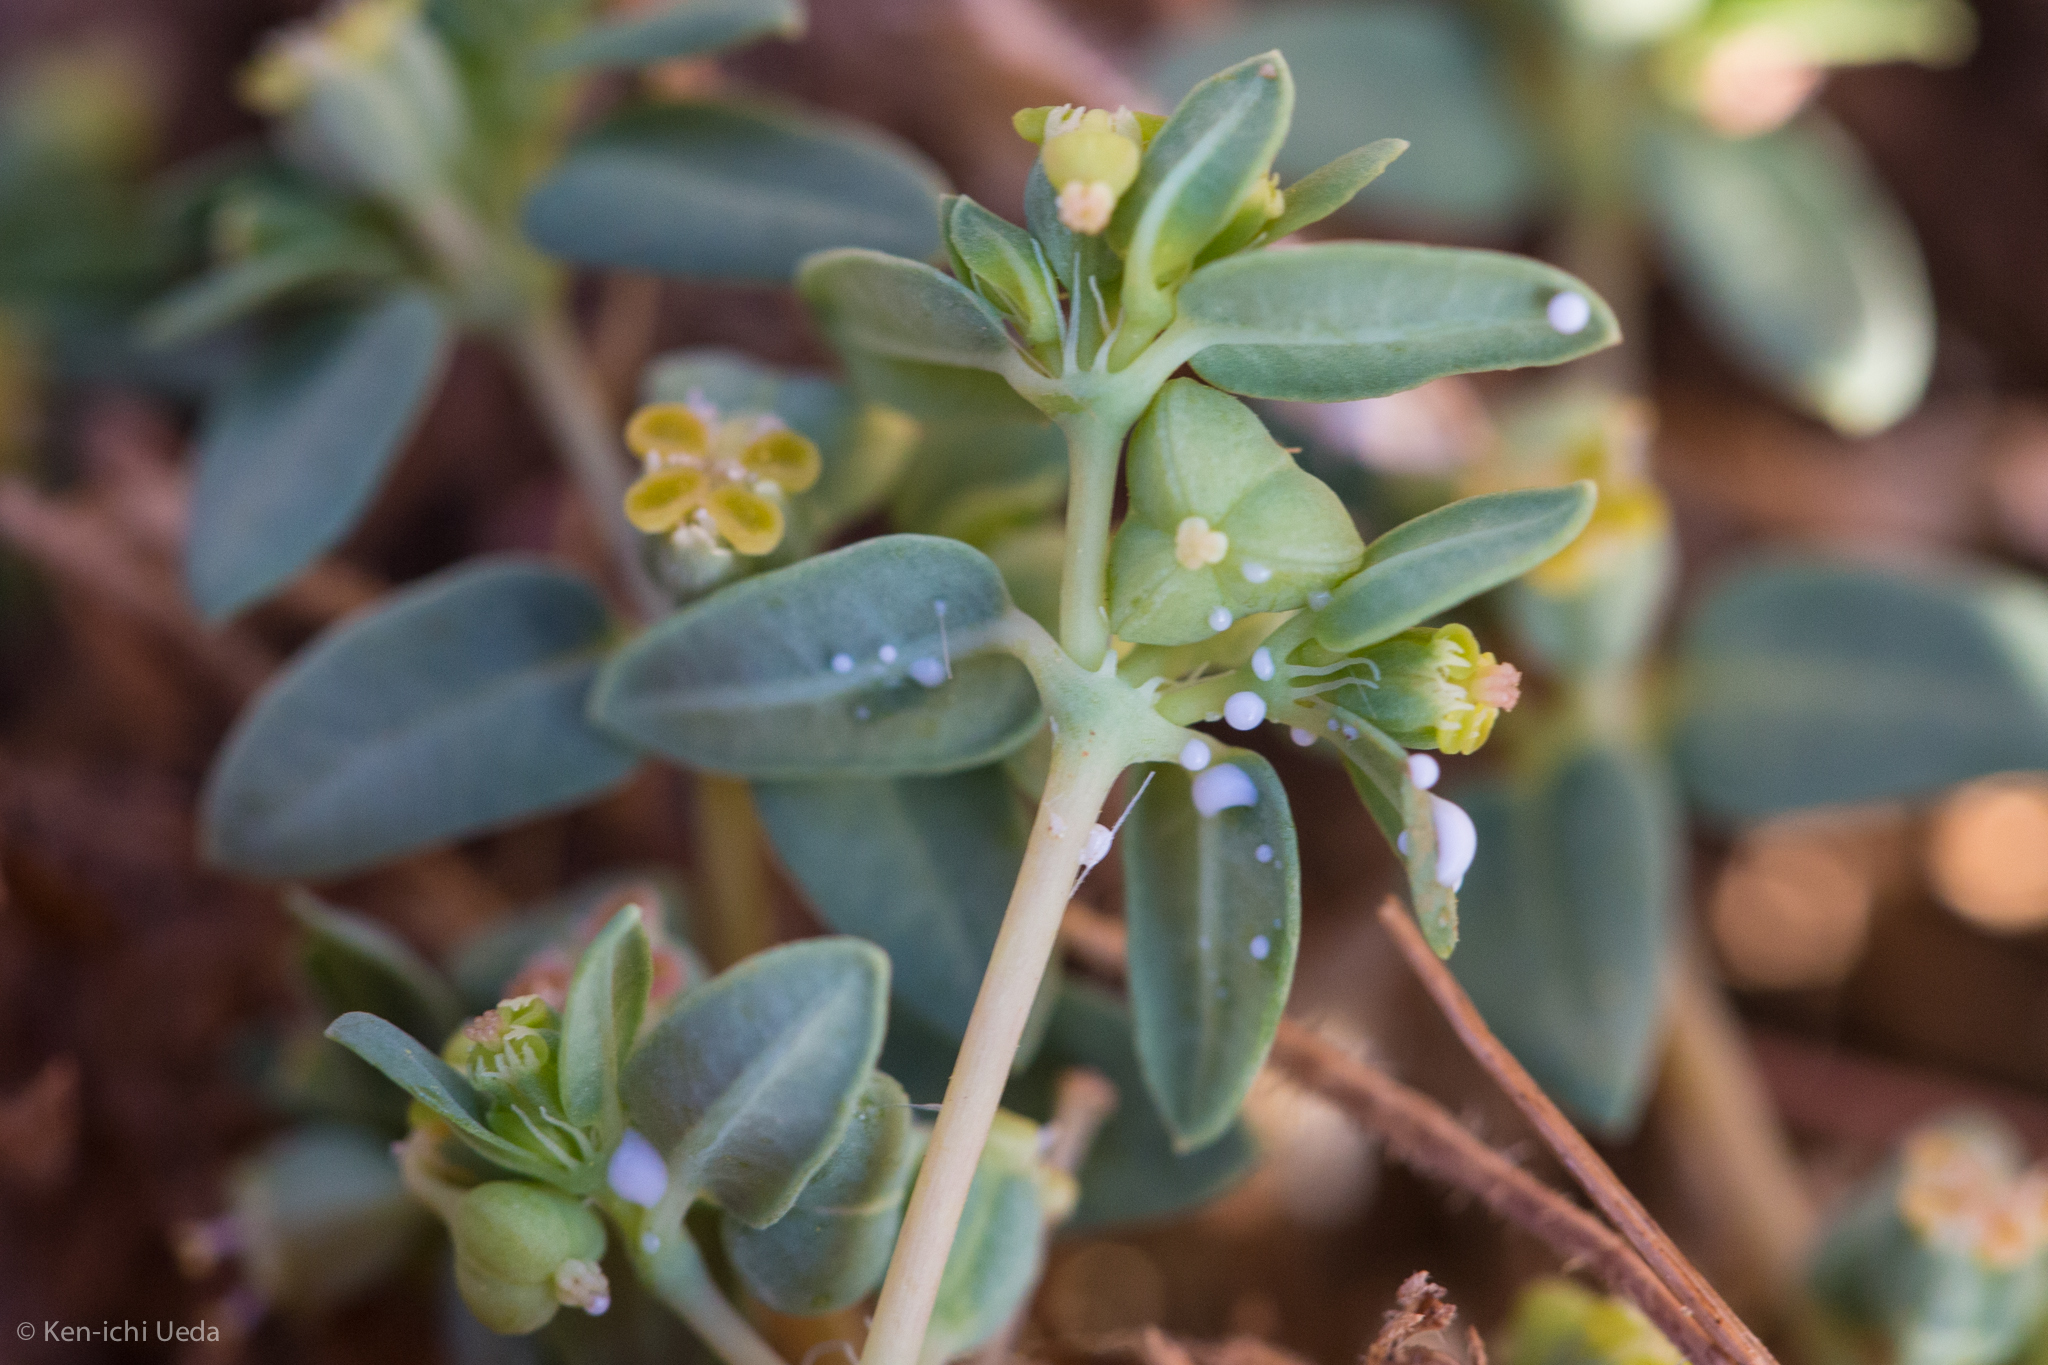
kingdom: Plantae
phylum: Tracheophyta
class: Magnoliopsida
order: Malpighiales
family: Euphorbiaceae
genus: Euphorbia
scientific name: Euphorbia ocellata
